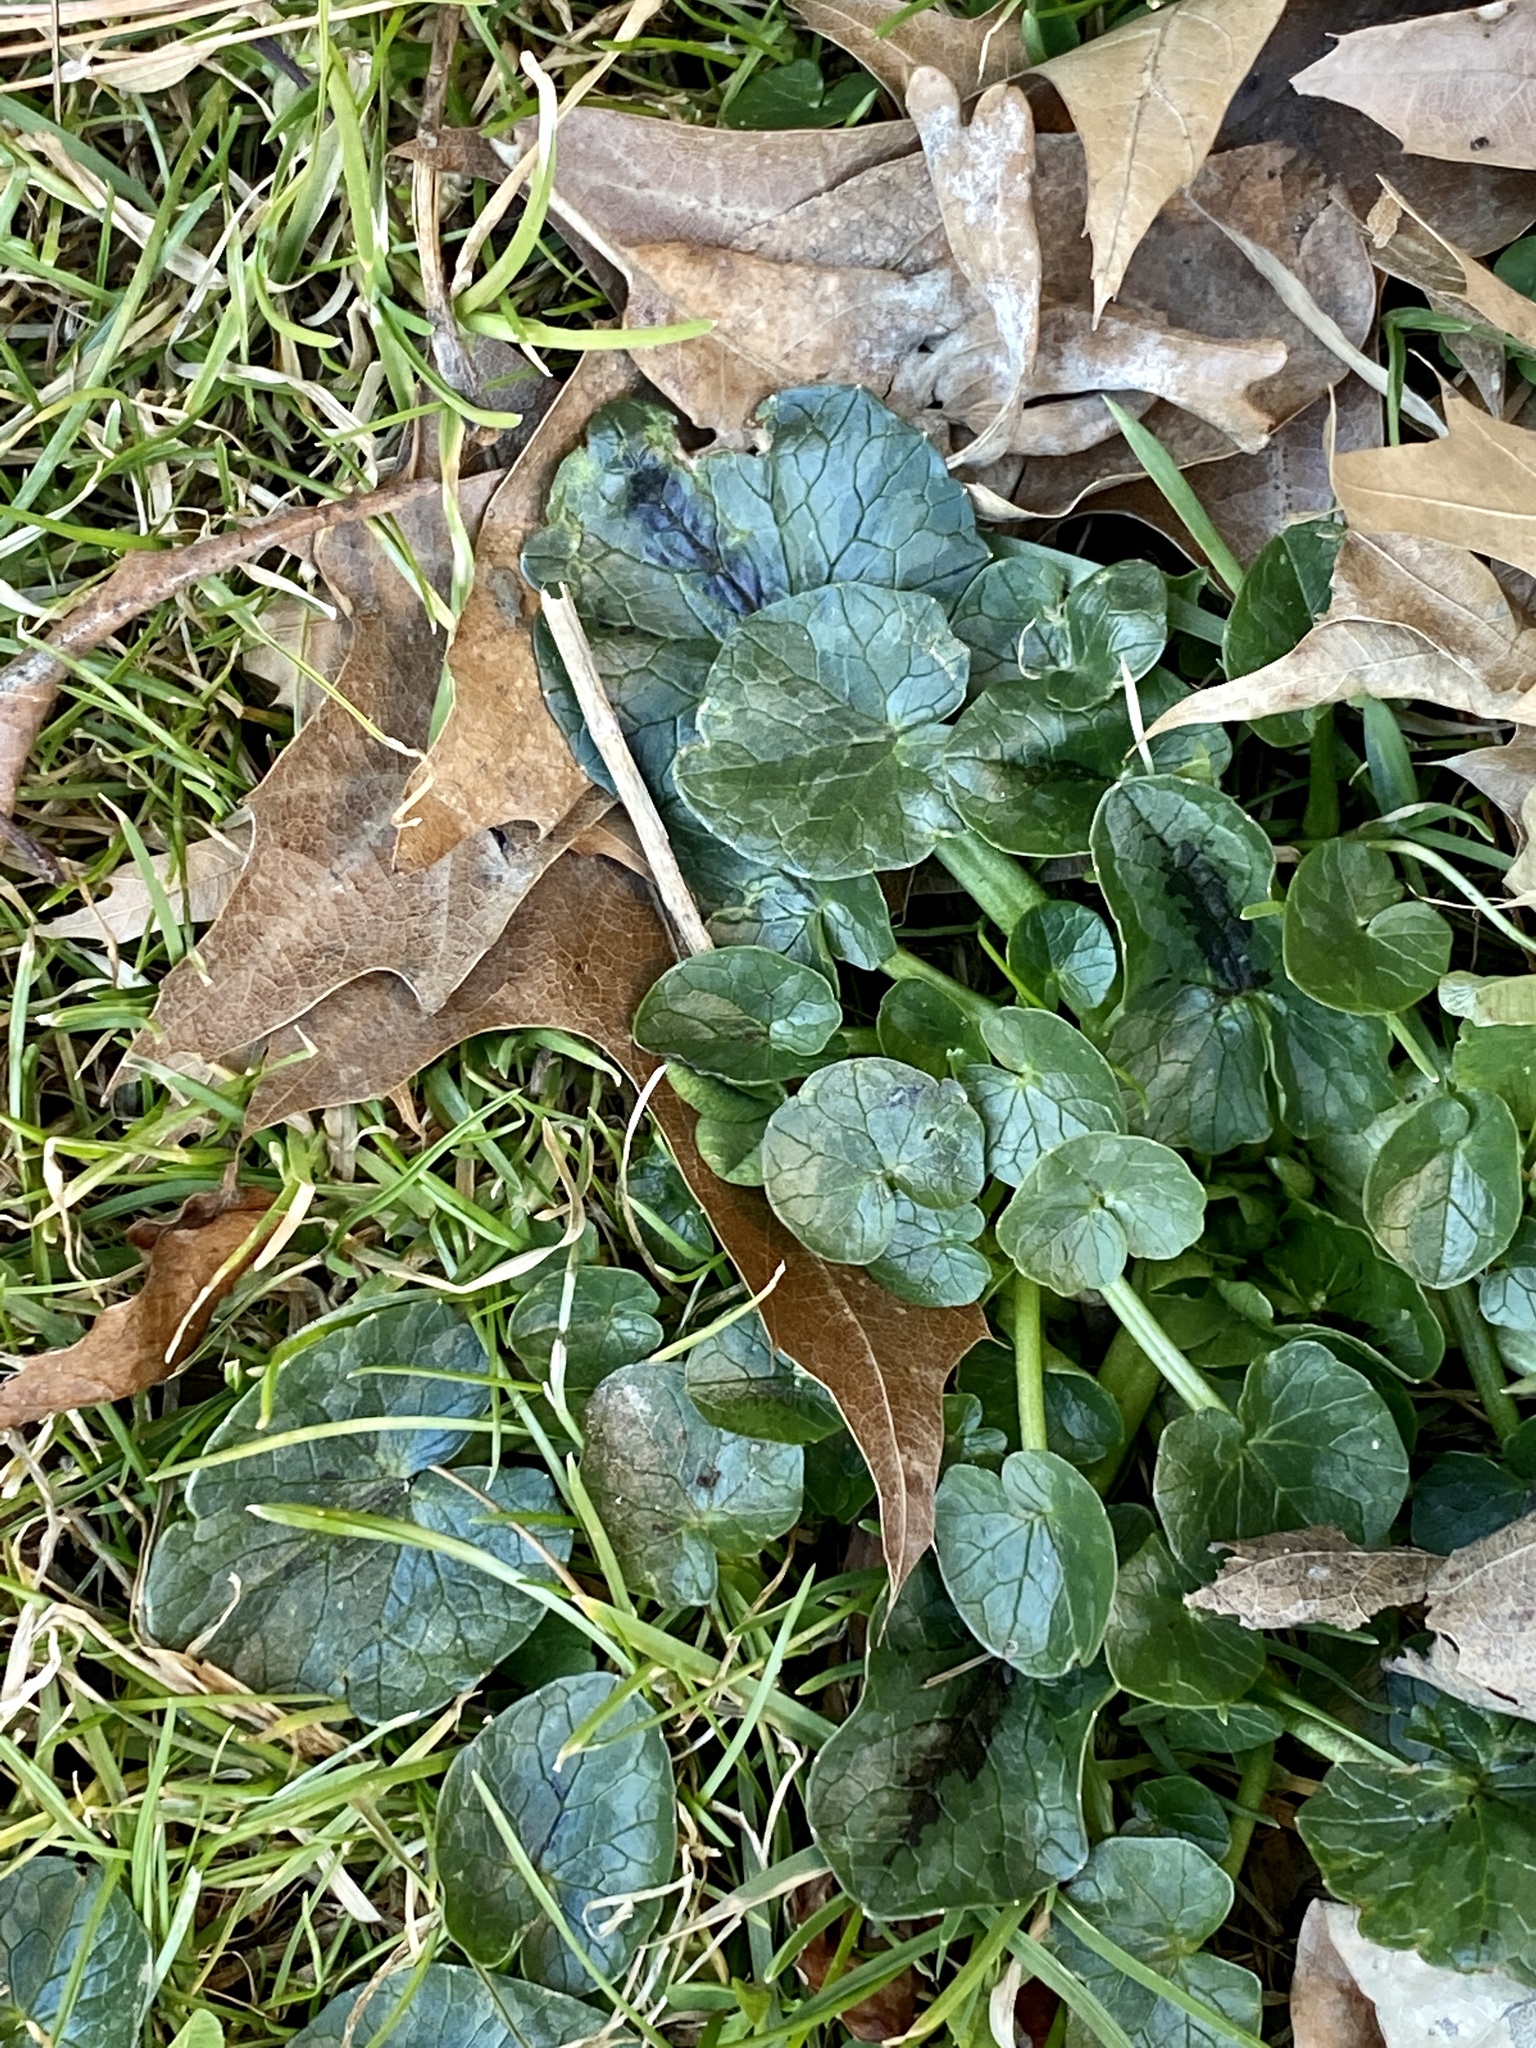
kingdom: Plantae
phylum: Tracheophyta
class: Magnoliopsida
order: Ranunculales
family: Ranunculaceae
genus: Ficaria
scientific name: Ficaria verna
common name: Lesser celandine
